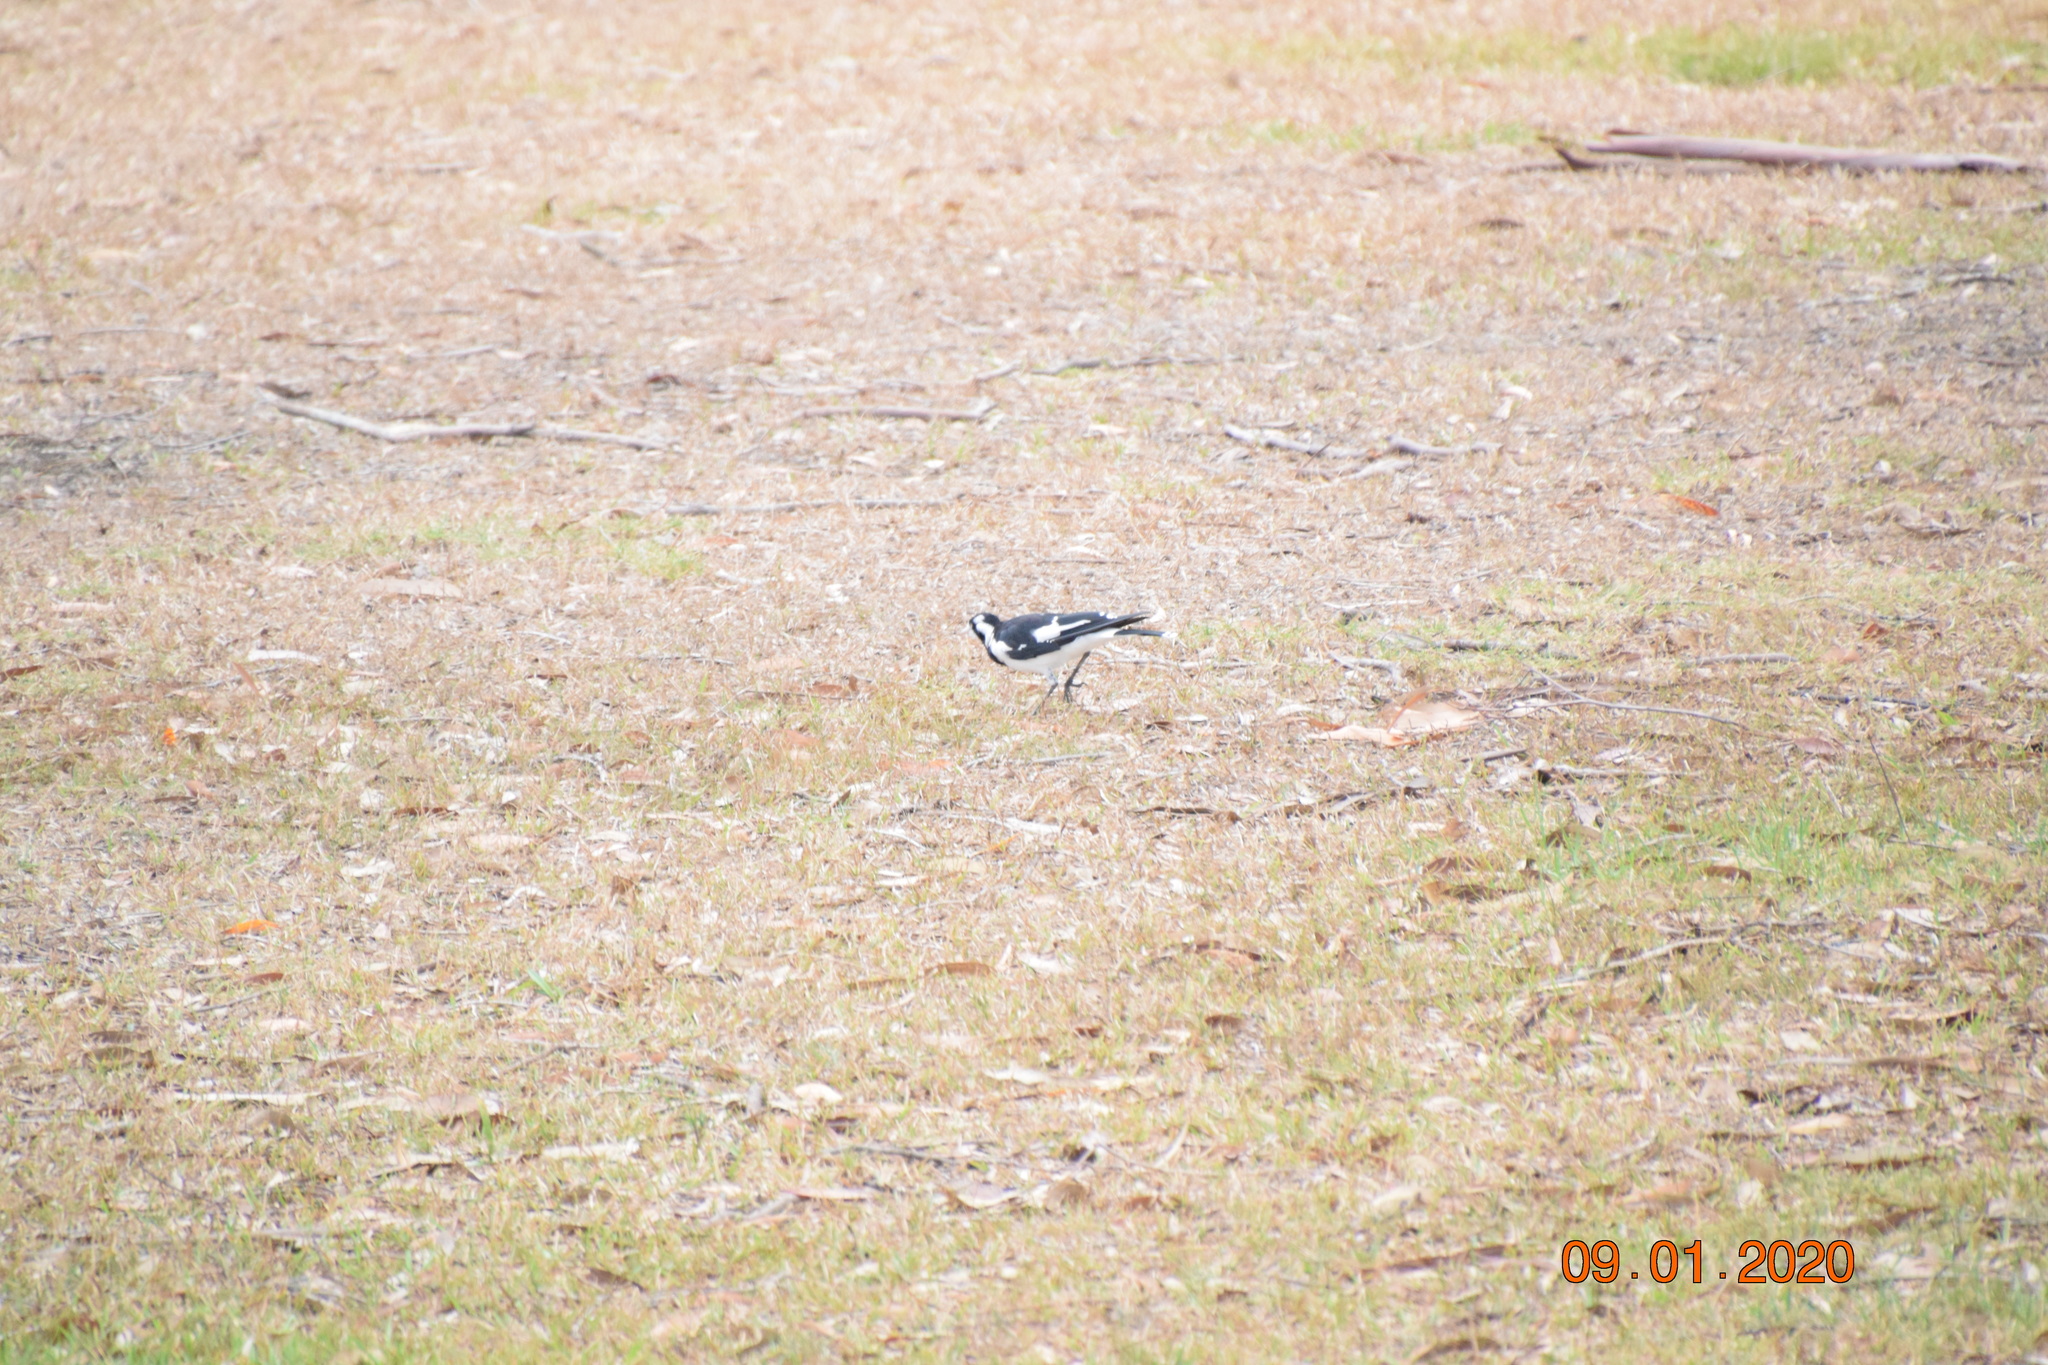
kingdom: Animalia
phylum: Chordata
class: Aves
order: Passeriformes
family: Monarchidae
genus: Grallina
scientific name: Grallina cyanoleuca
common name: Magpie-lark
